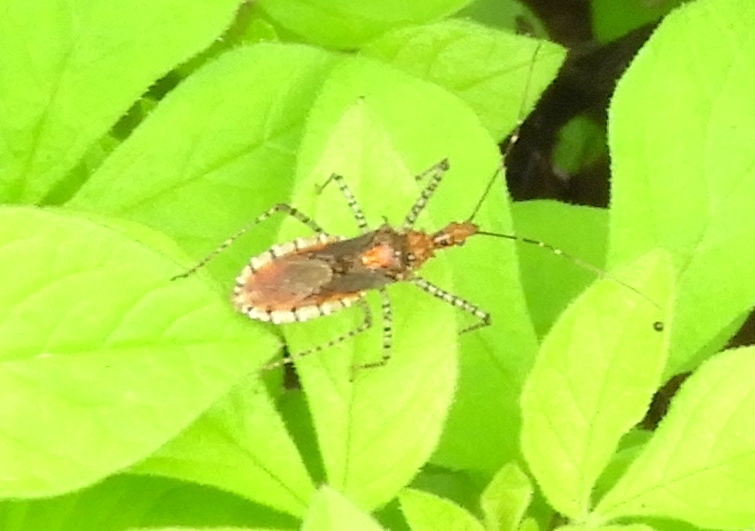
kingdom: Animalia
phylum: Arthropoda
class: Insecta
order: Hemiptera
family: Reduviidae
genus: Pselliopus
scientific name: Pselliopus
